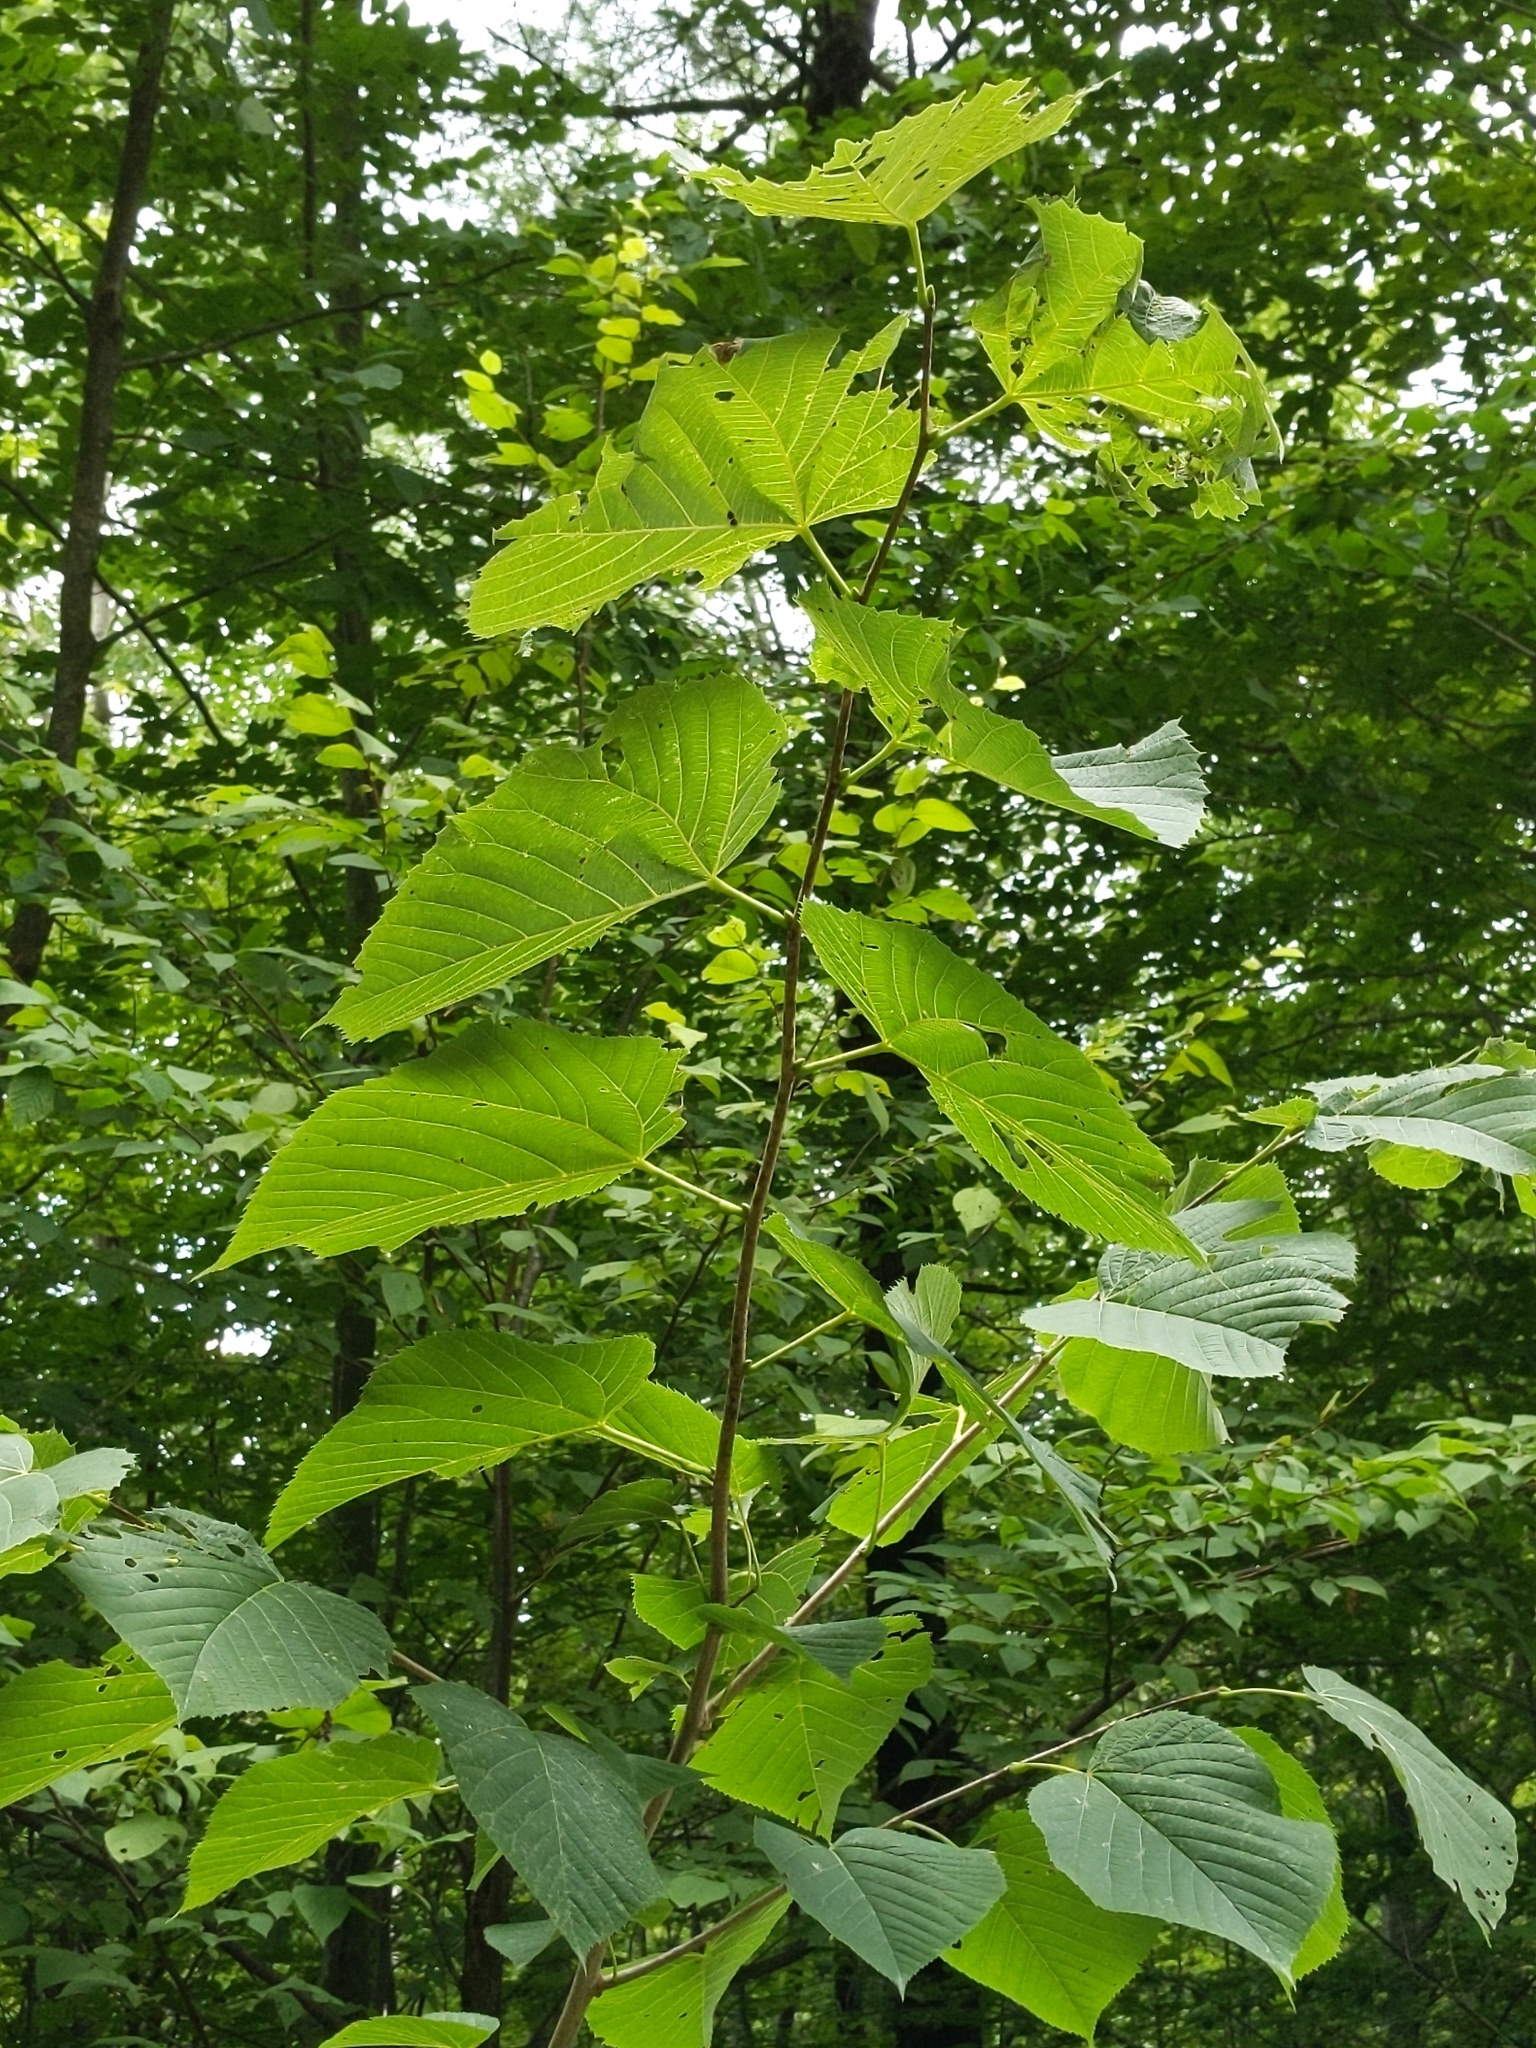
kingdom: Plantae
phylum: Tracheophyta
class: Magnoliopsida
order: Malvales
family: Malvaceae
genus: Tilia
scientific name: Tilia americana
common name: Basswood
